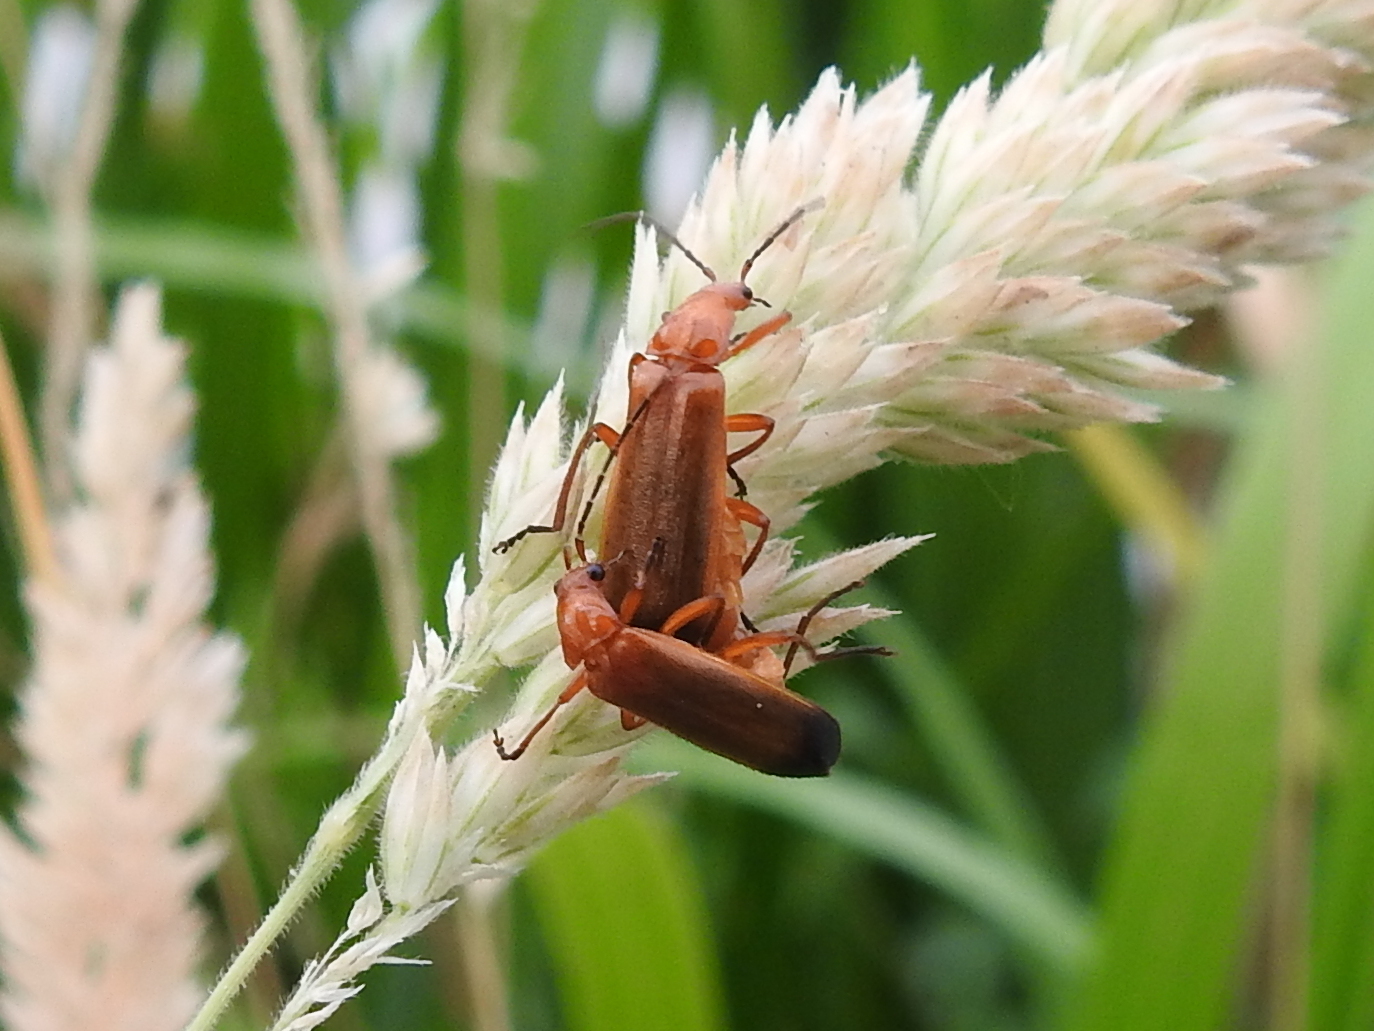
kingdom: Animalia
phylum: Arthropoda
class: Insecta
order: Coleoptera
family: Cantharidae
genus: Rhagonycha
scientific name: Rhagonycha fulva
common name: Common red soldier beetle
